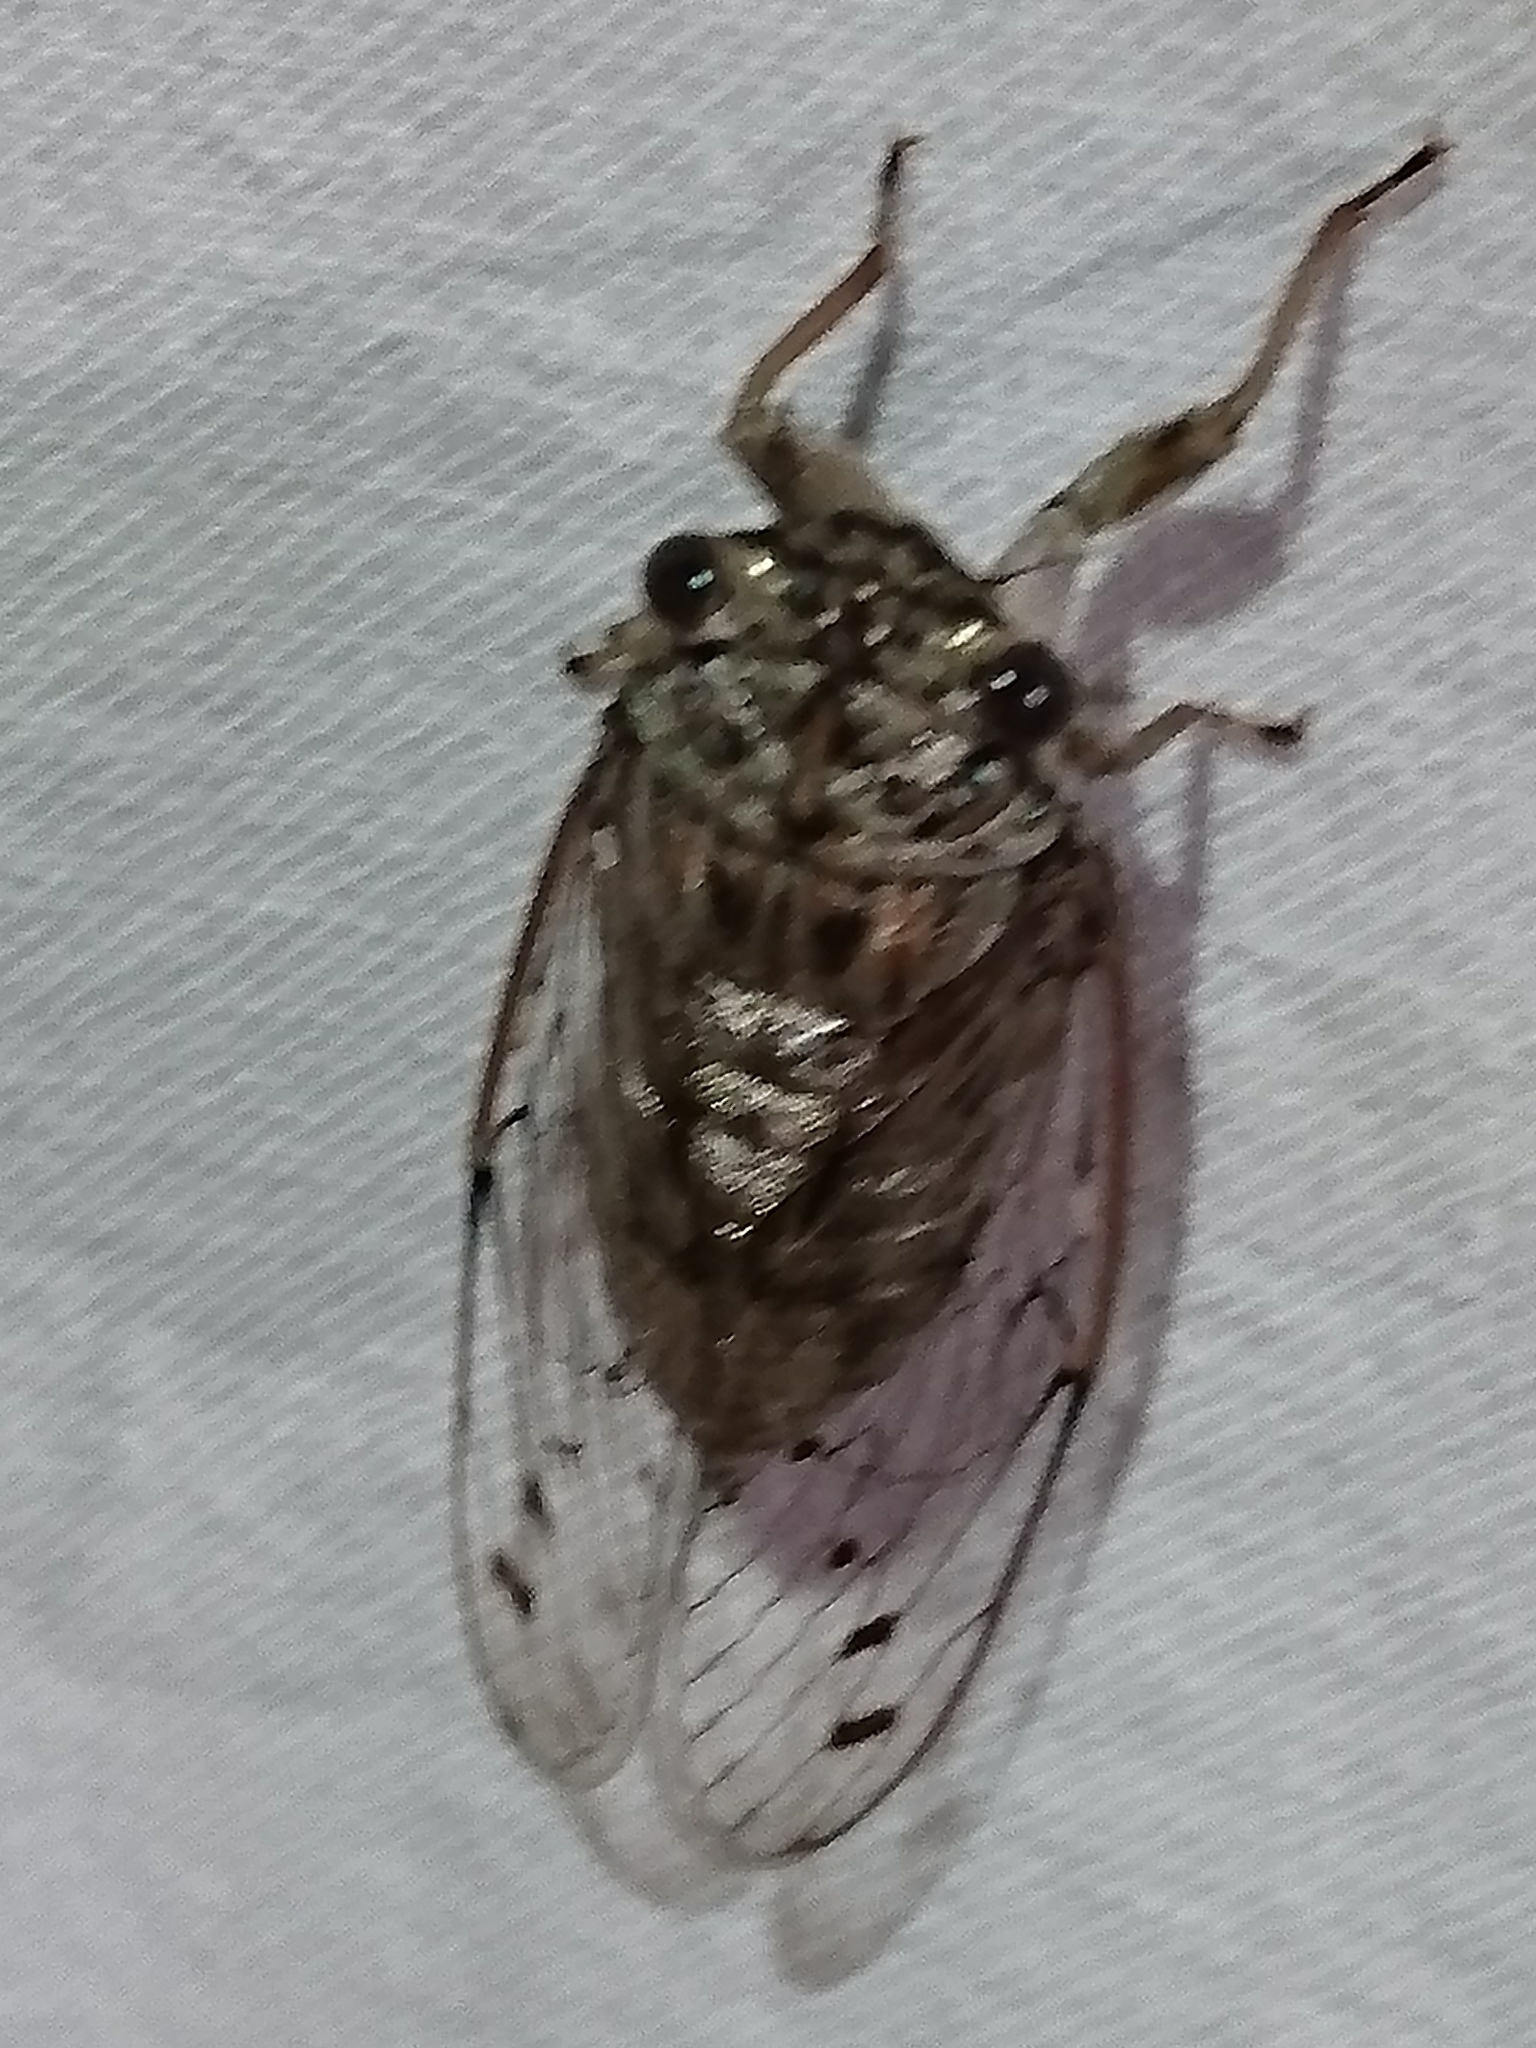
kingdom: Animalia
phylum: Arthropoda
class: Insecta
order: Hemiptera
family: Cicadidae
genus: Neocicada
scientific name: Neocicada hieroglyphica
